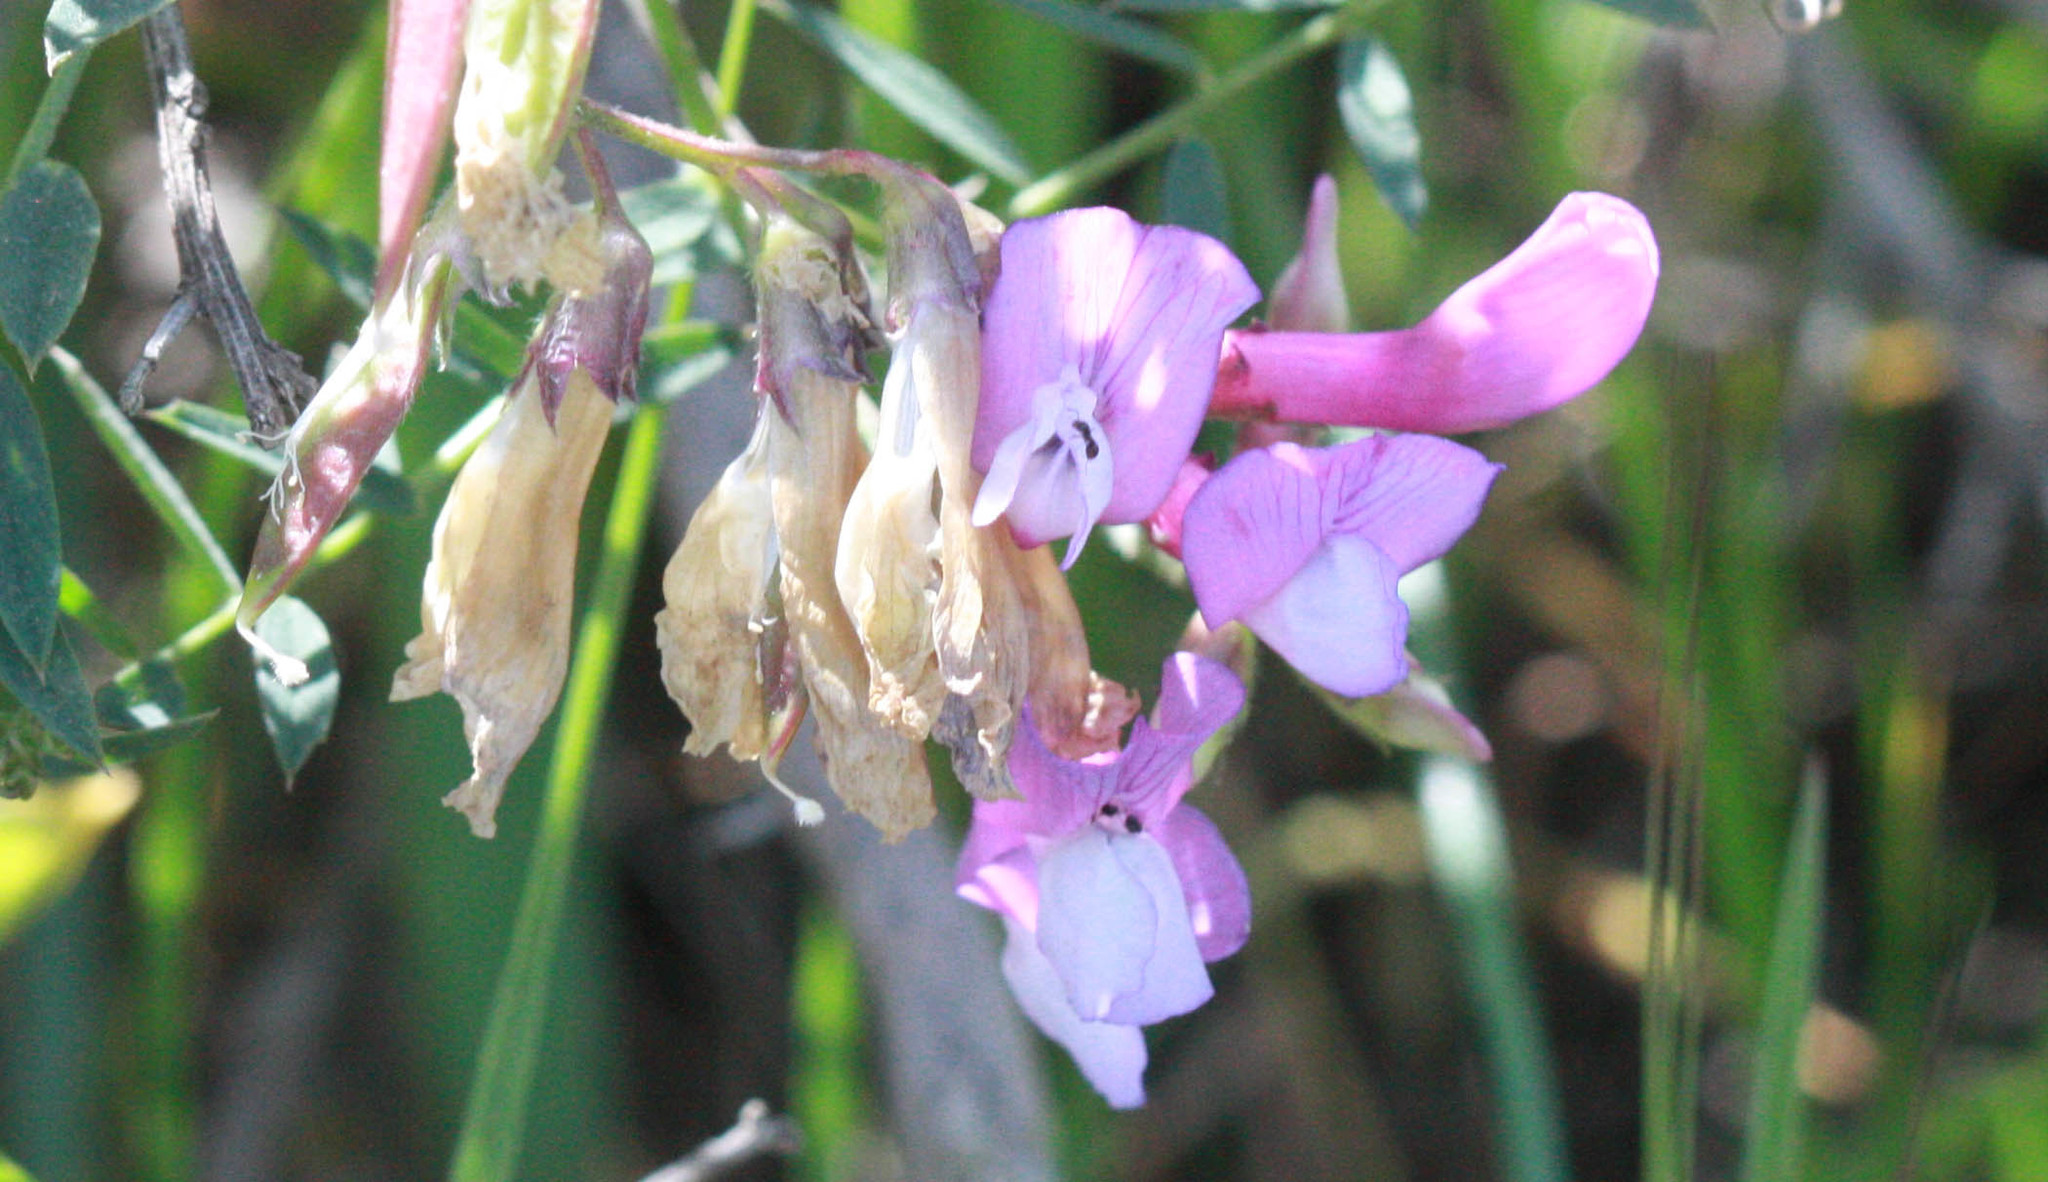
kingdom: Plantae
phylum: Tracheophyta
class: Magnoliopsida
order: Fabales
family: Fabaceae
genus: Lathyrus
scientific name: Lathyrus vestitus
